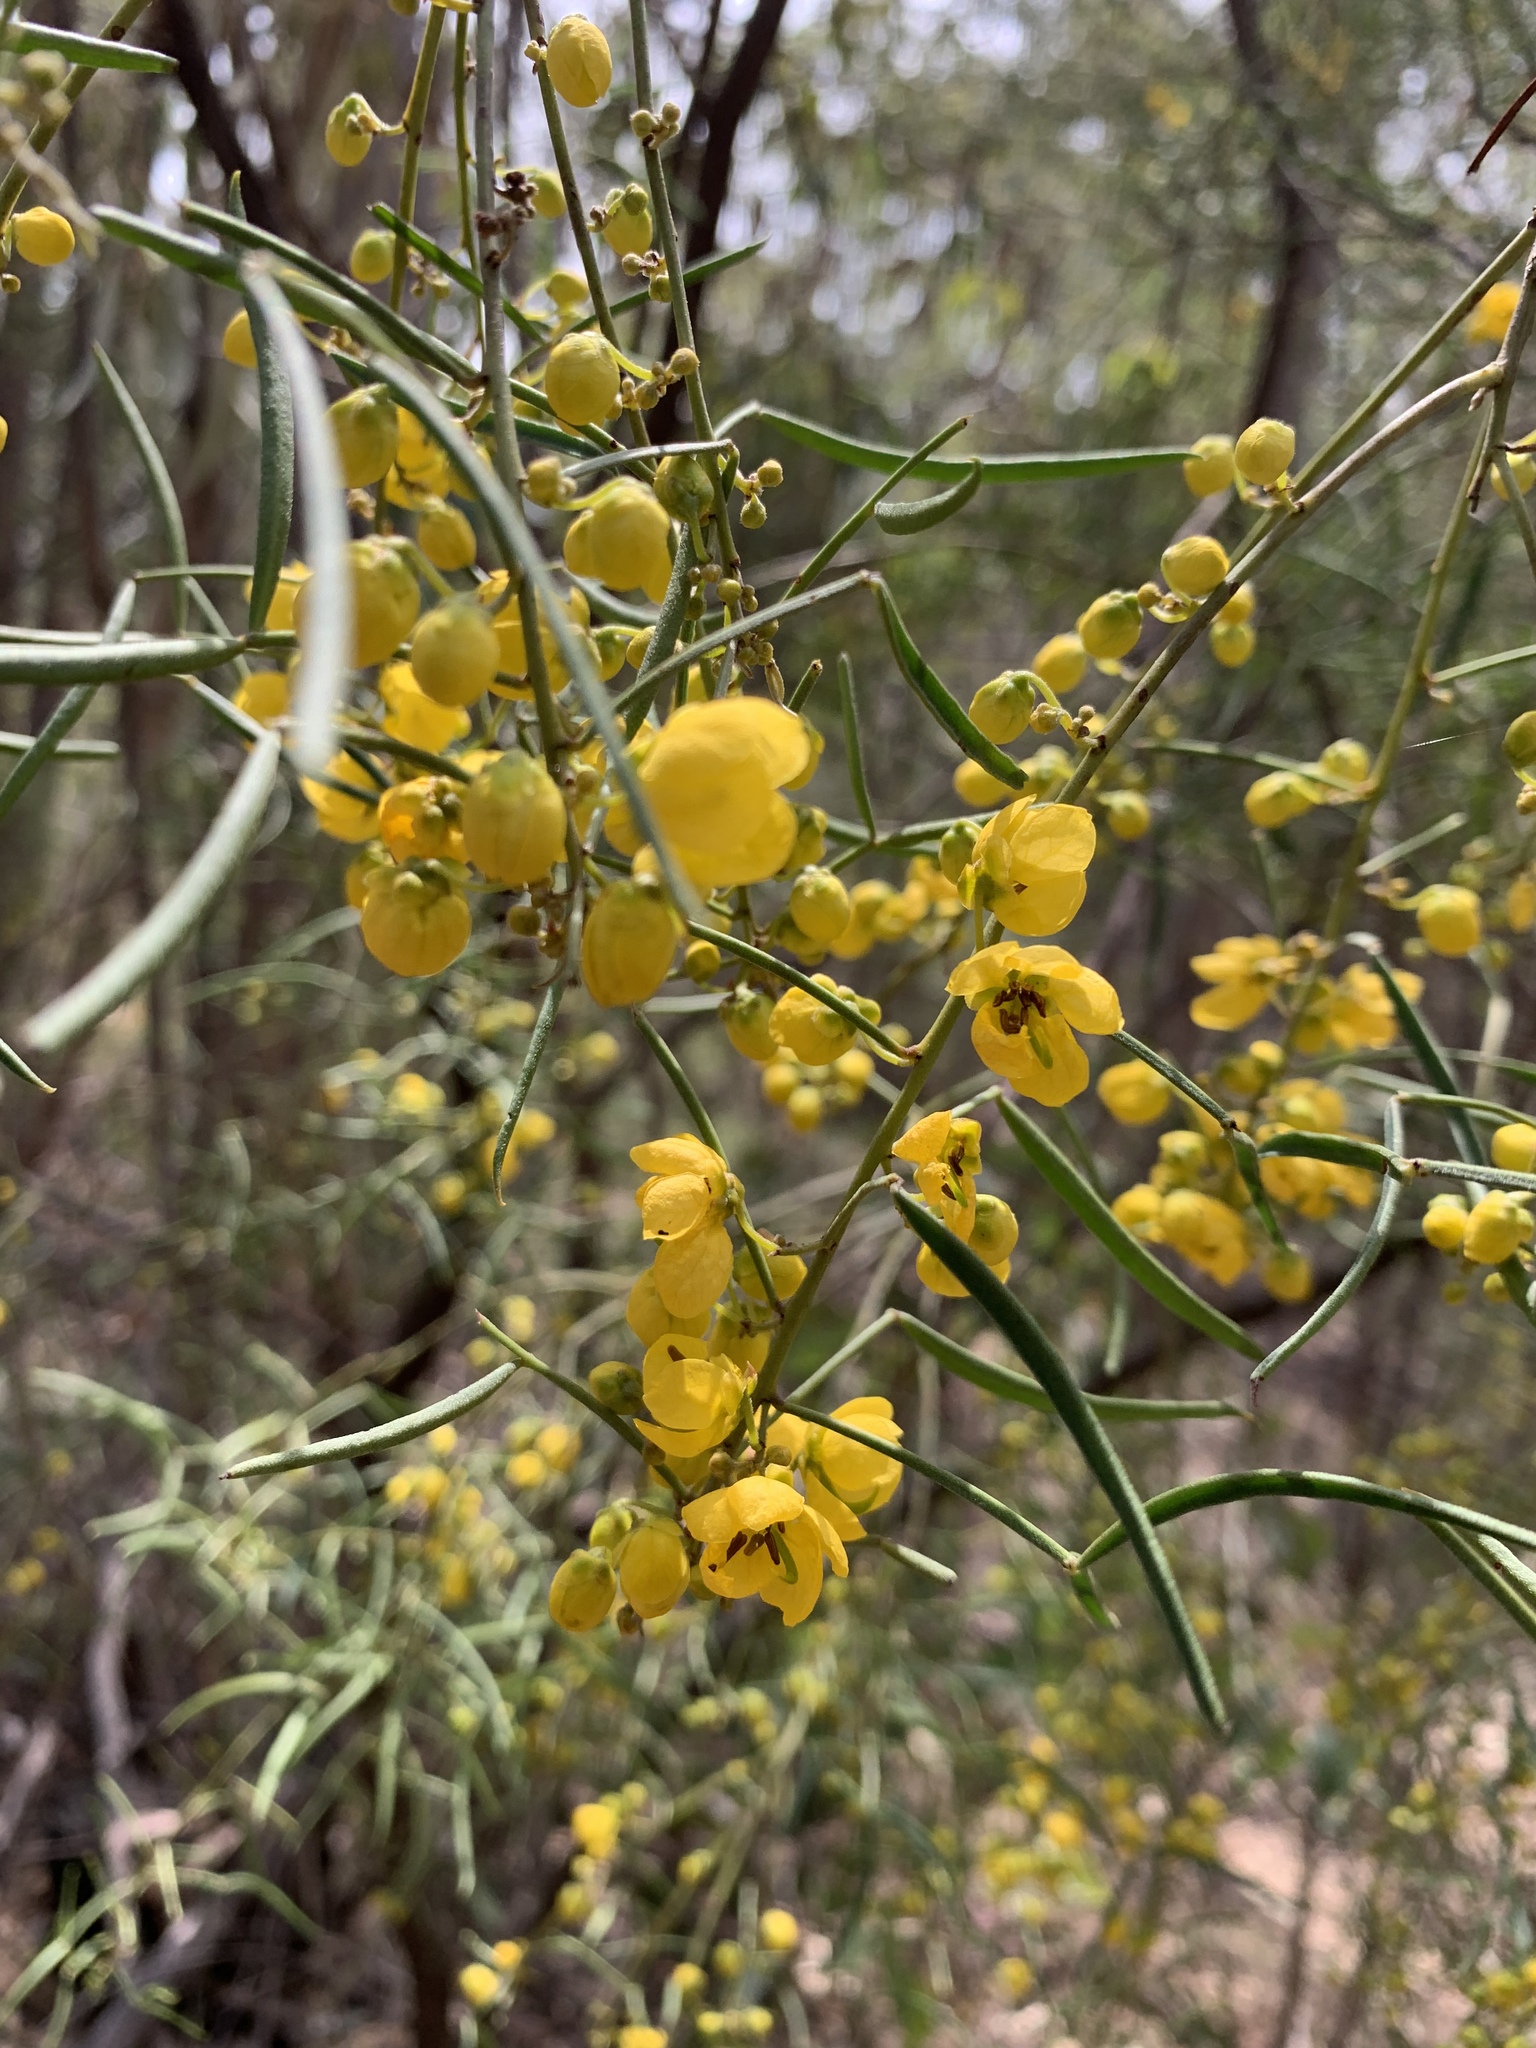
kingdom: Plantae
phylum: Tracheophyta
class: Magnoliopsida
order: Fabales
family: Fabaceae
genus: Senna
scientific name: Senna artemisioides
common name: Burnt-leaved acacia
